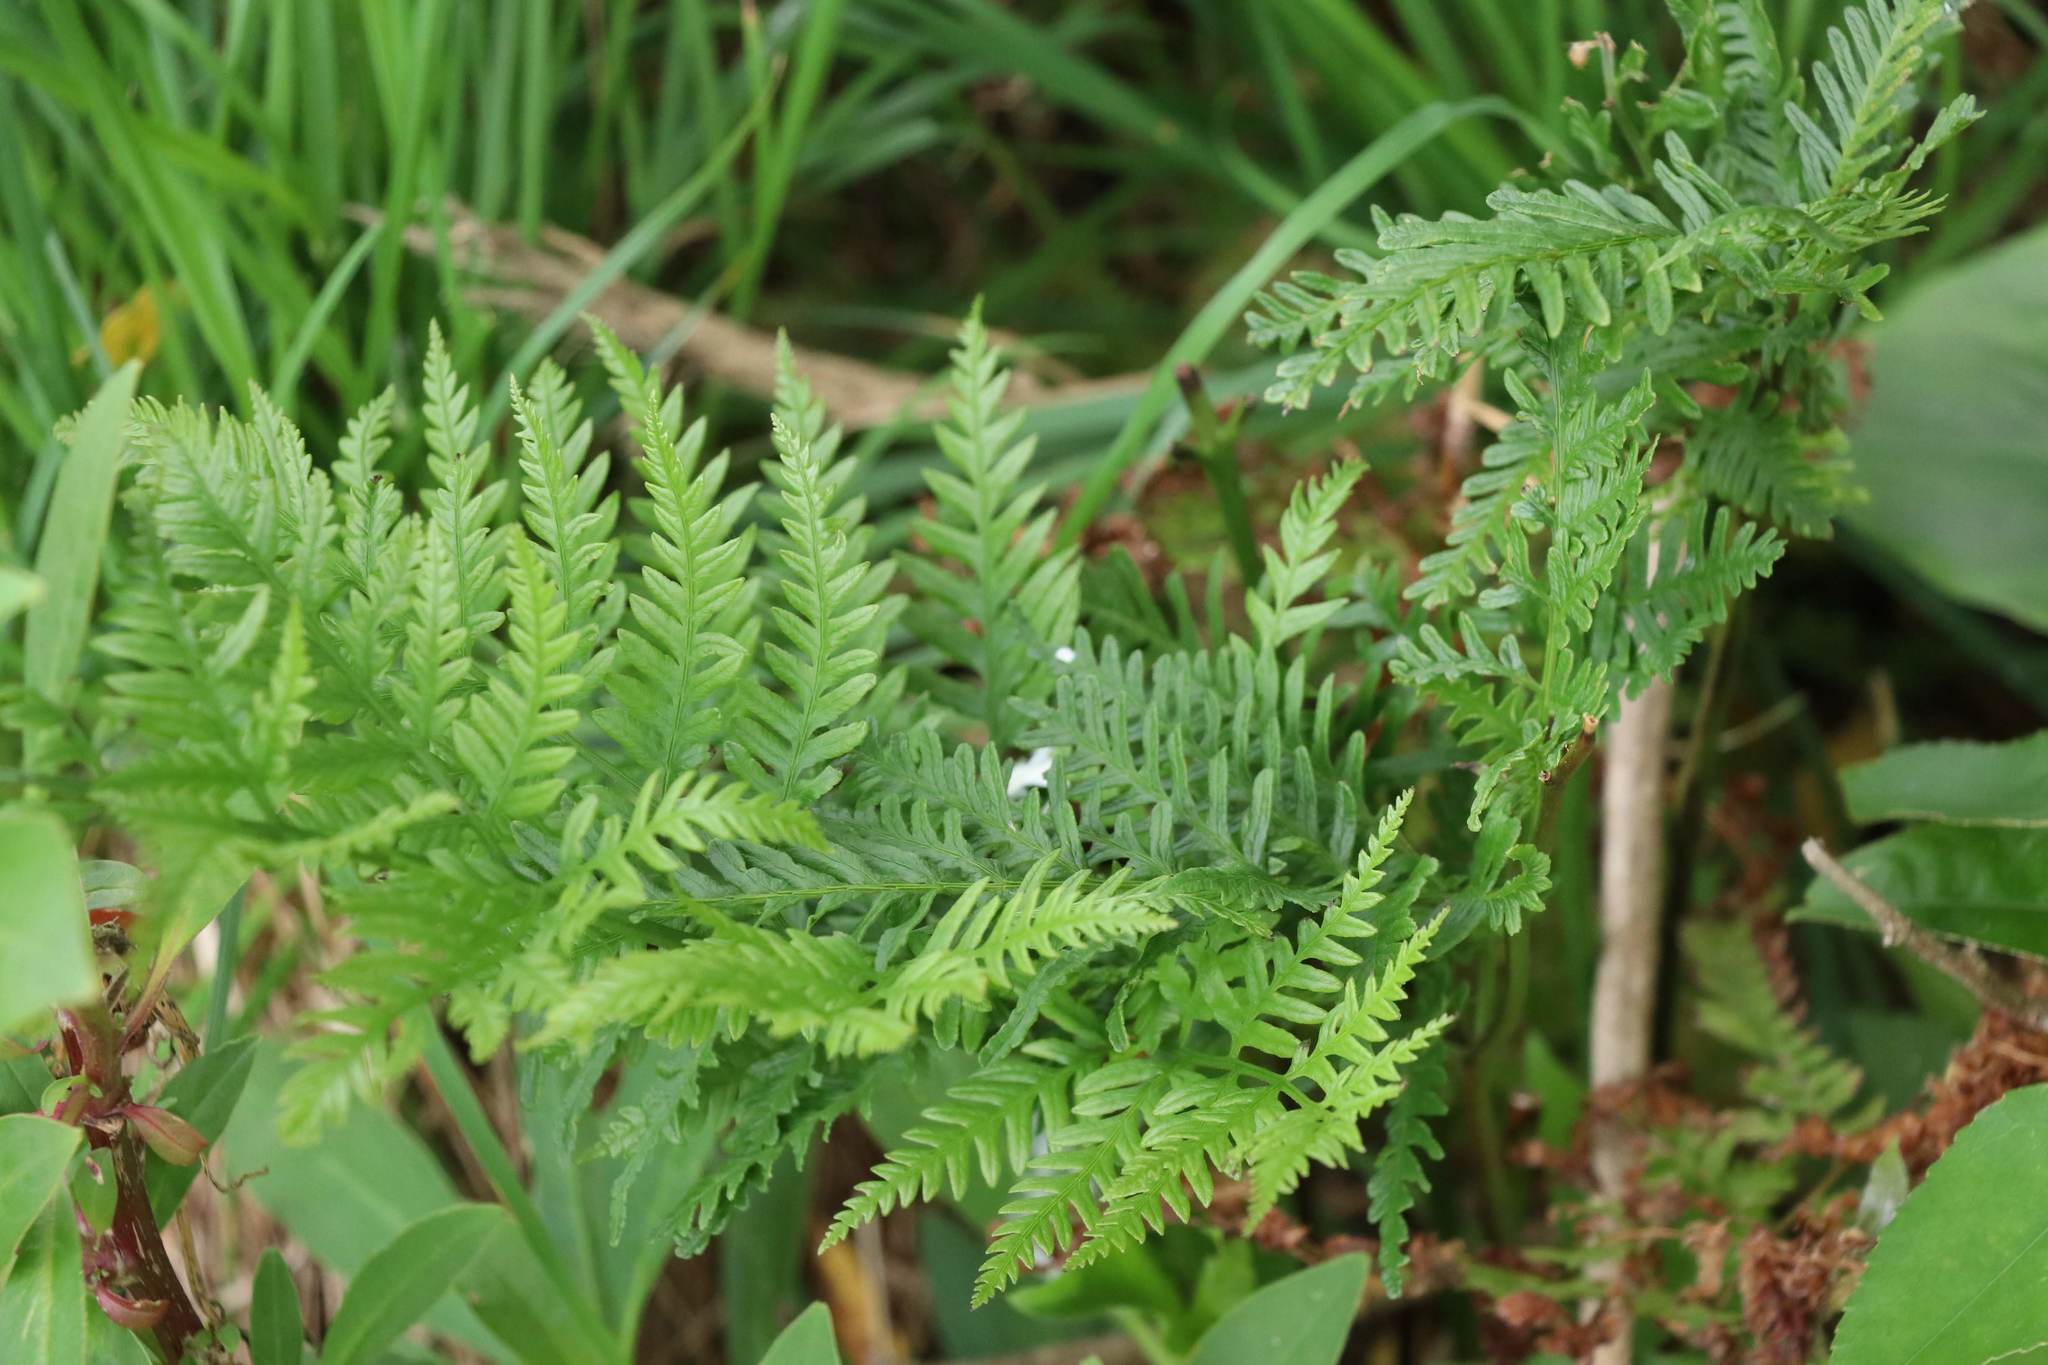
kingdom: Plantae
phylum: Tracheophyta
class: Polypodiopsida
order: Polypodiales
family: Pteridaceae
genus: Pteris
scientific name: Pteris tremula
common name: Australian brake
